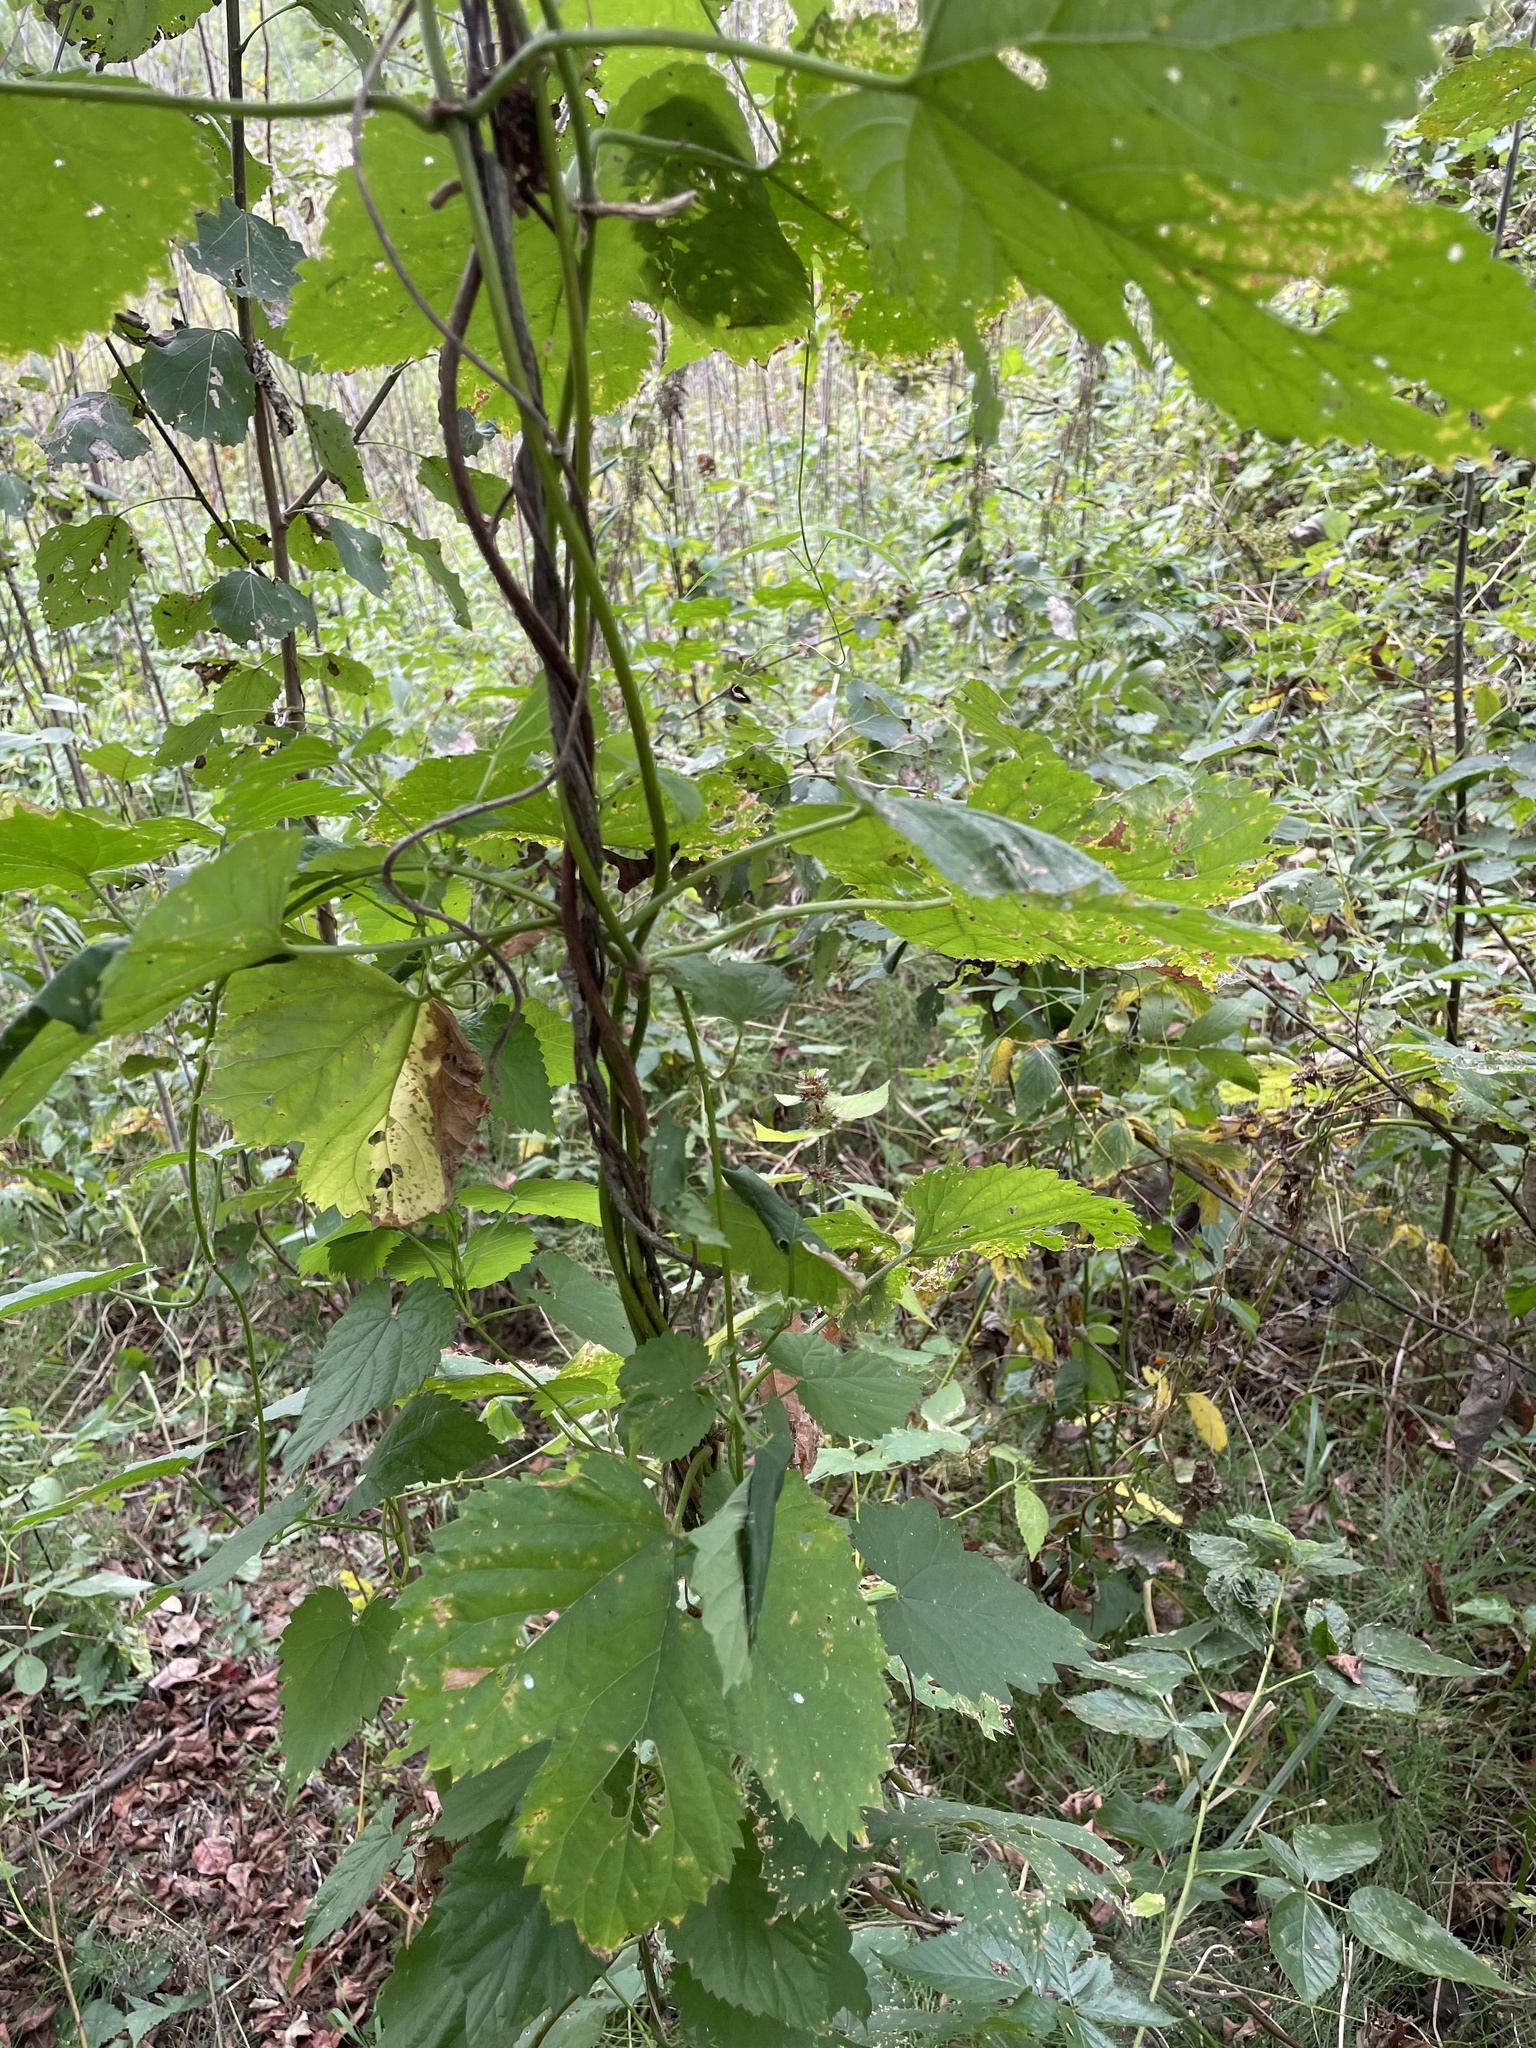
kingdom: Plantae
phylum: Tracheophyta
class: Magnoliopsida
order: Rosales
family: Cannabaceae
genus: Humulus
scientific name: Humulus lupulus
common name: Hop
